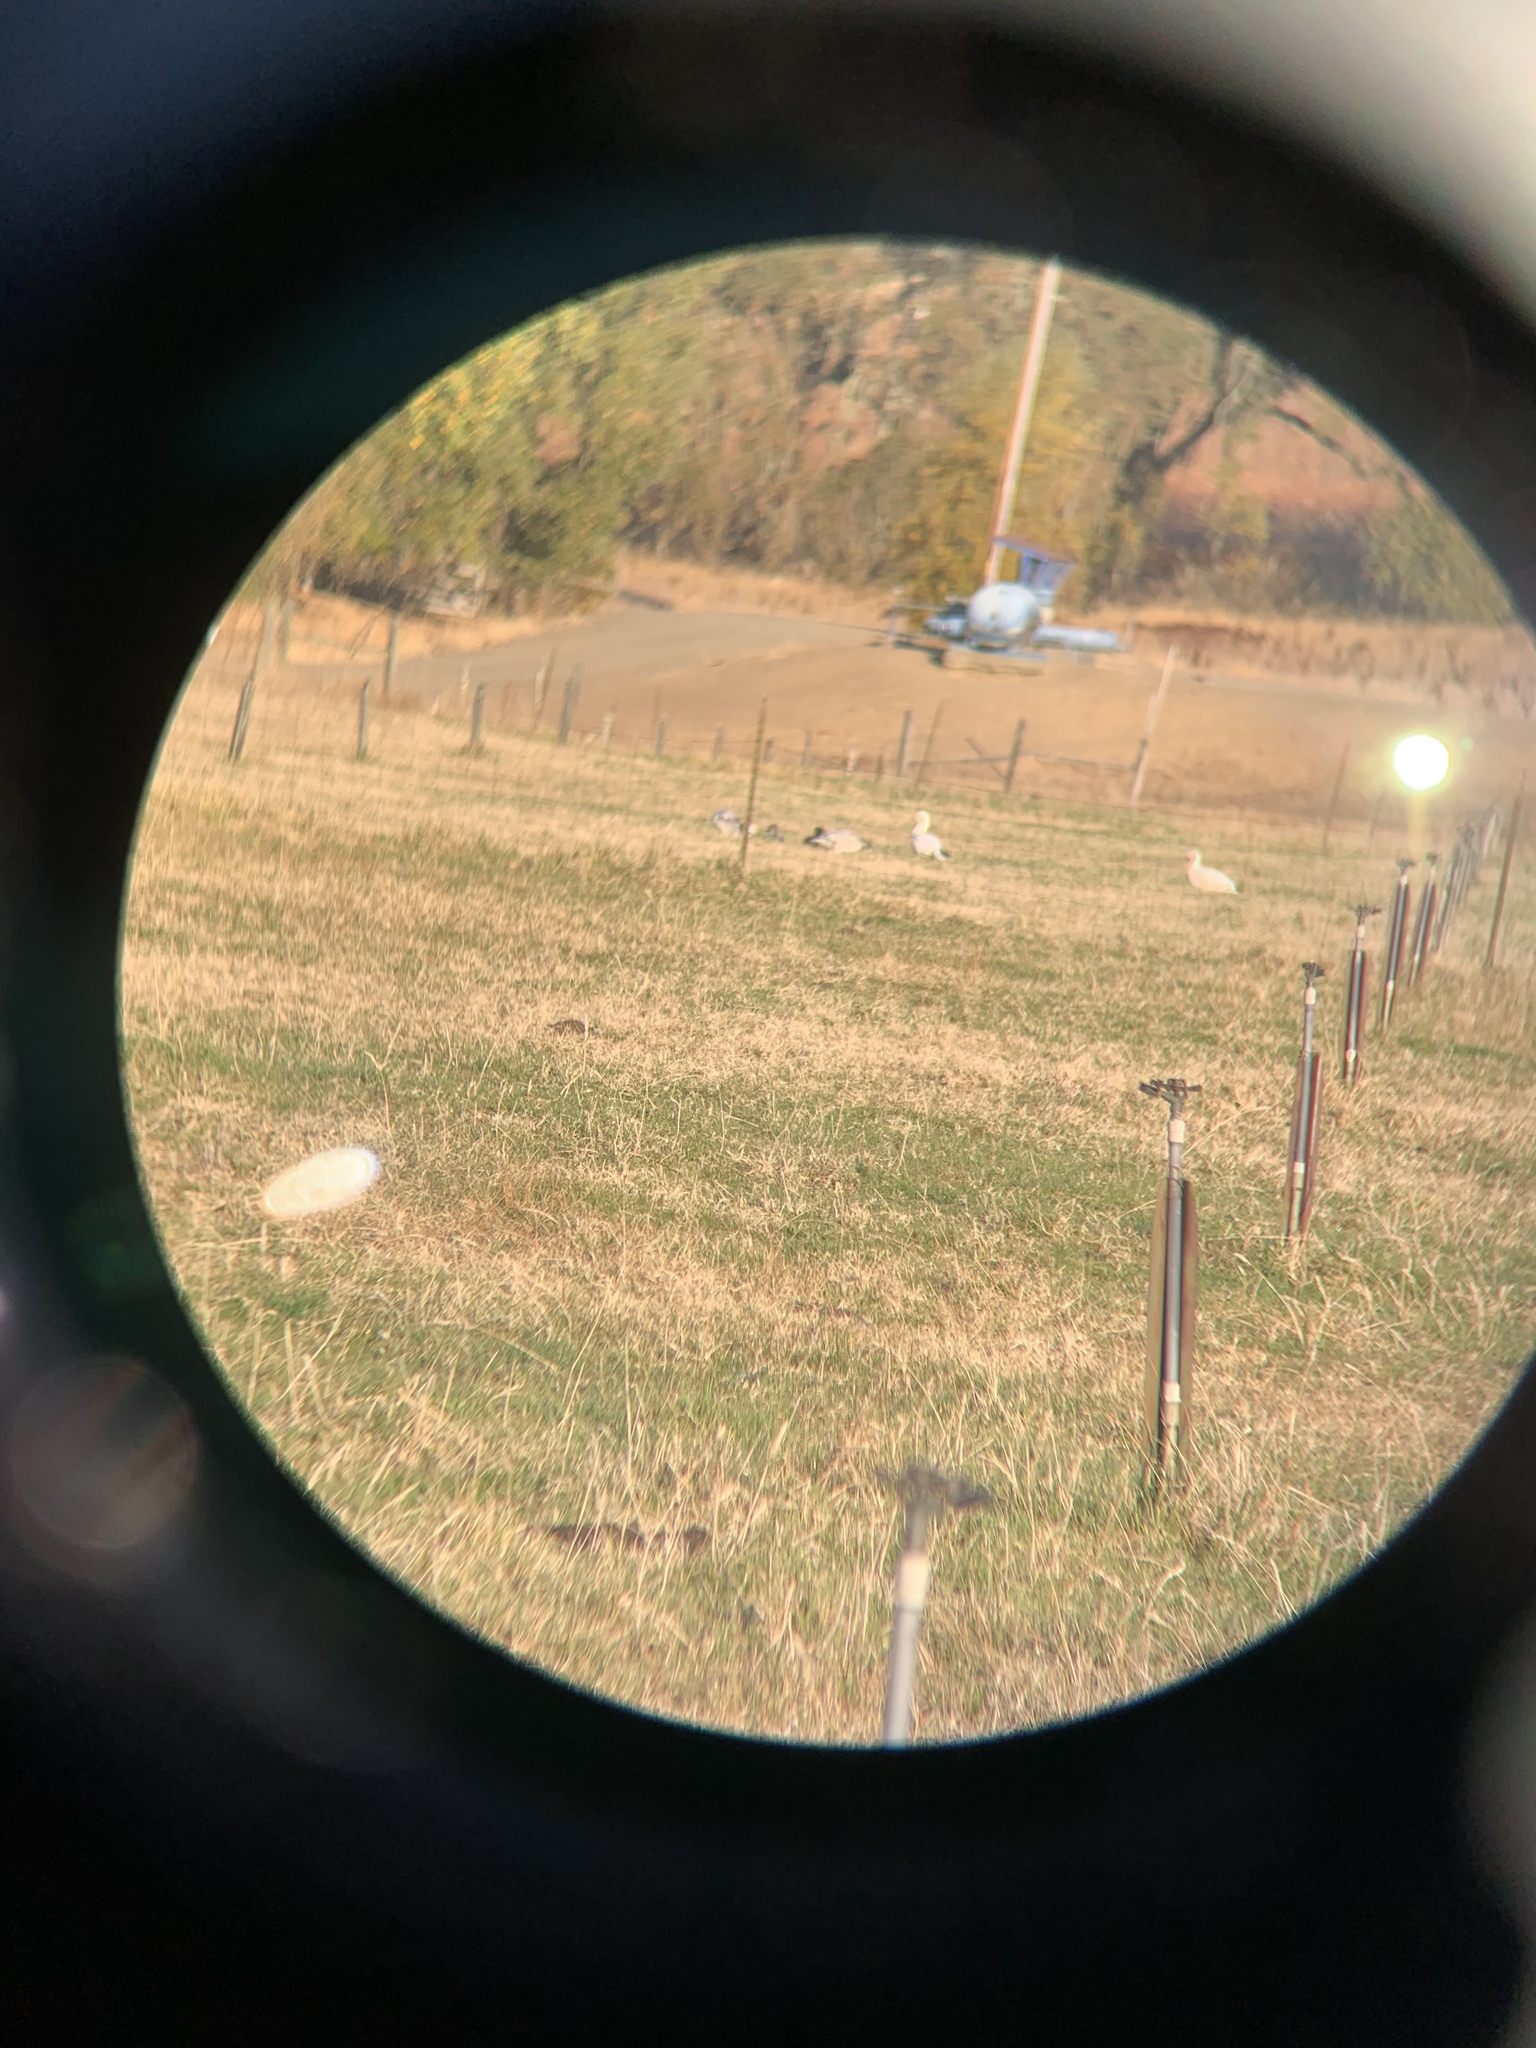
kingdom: Animalia
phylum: Chordata
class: Aves
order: Anseriformes
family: Anatidae
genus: Anser
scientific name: Anser albifrons
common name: Greater white-fronted goose
